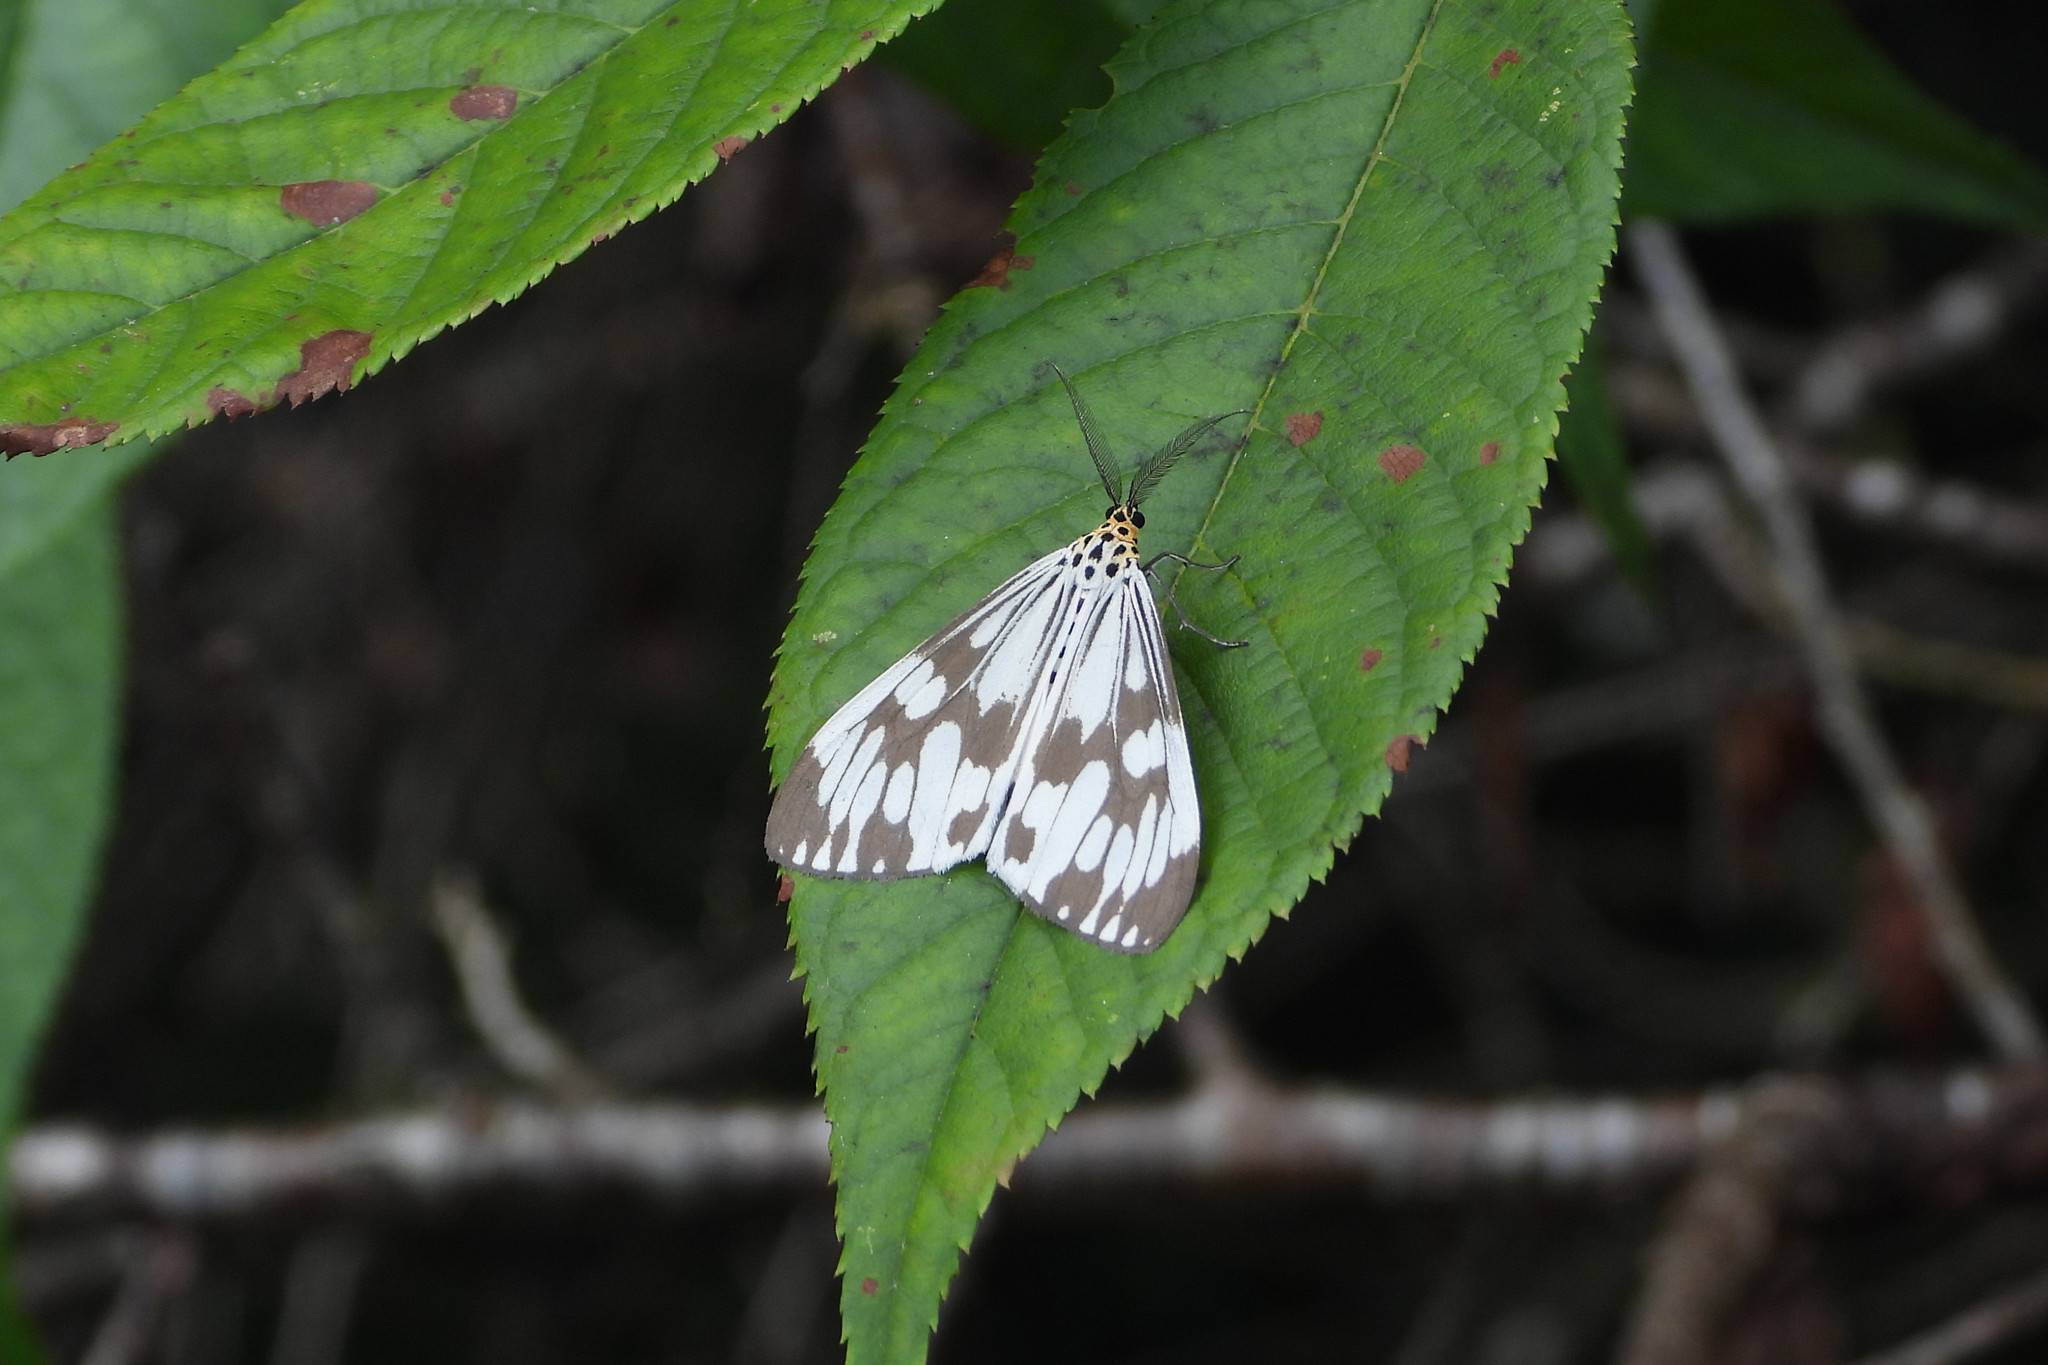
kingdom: Animalia
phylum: Arthropoda
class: Insecta
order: Lepidoptera
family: Erebidae
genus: Nyctemera
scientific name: Nyctemera adversata
